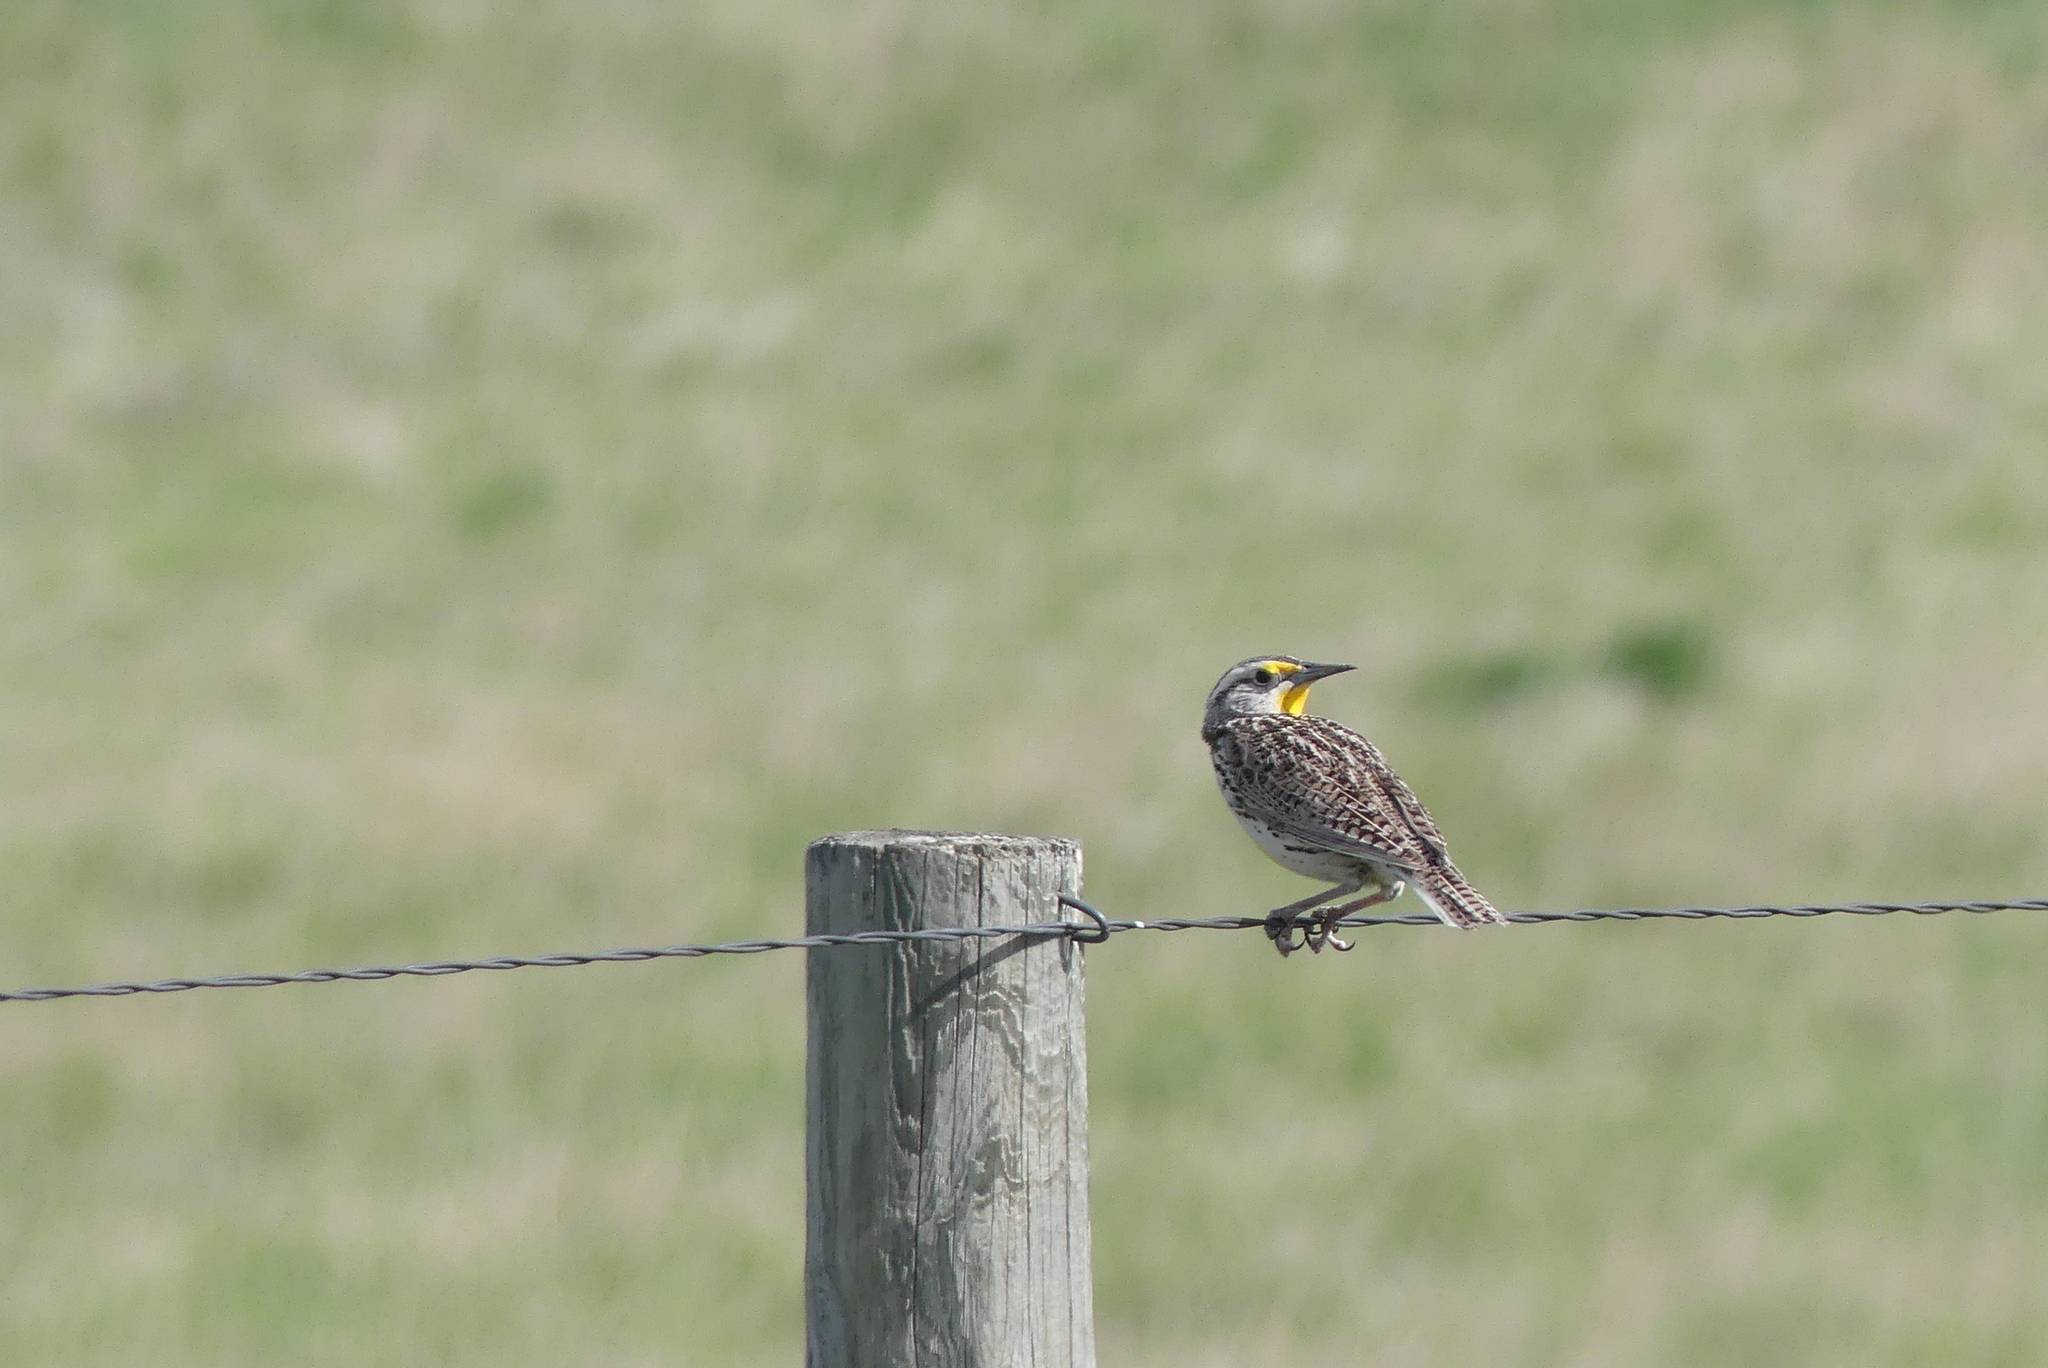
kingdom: Animalia
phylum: Chordata
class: Aves
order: Passeriformes
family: Icteridae
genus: Sturnella
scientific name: Sturnella neglecta
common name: Western meadowlark
